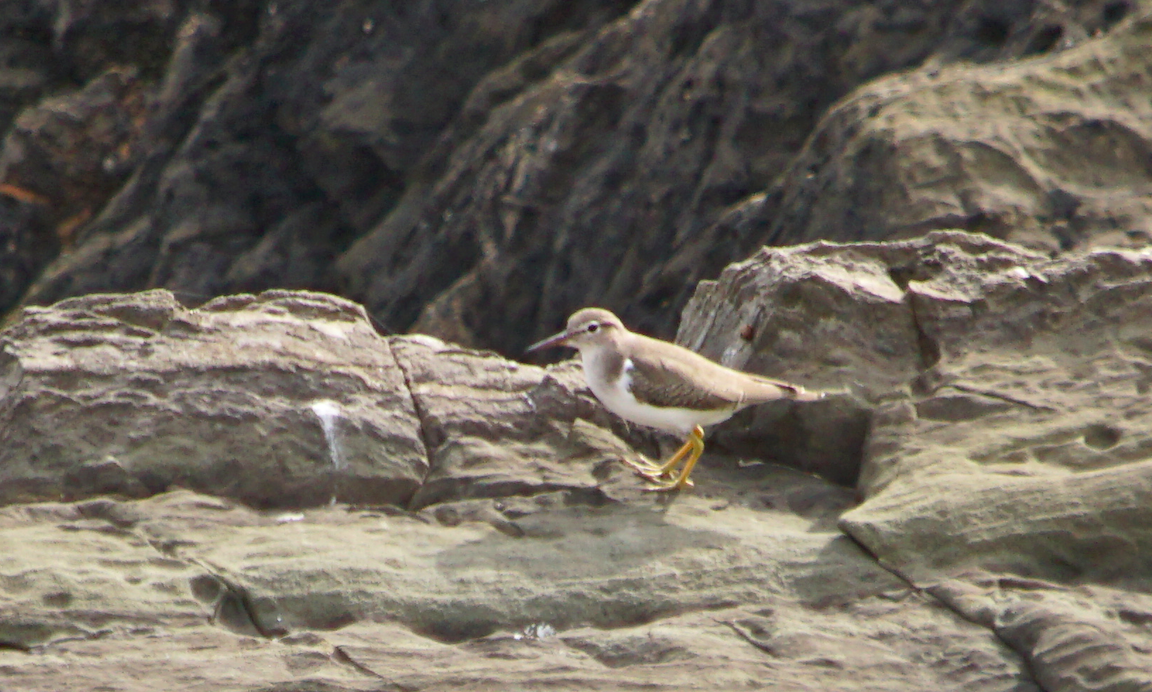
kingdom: Animalia
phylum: Chordata
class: Aves
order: Charadriiformes
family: Scolopacidae
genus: Actitis
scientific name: Actitis macularius
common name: Spotted sandpiper
